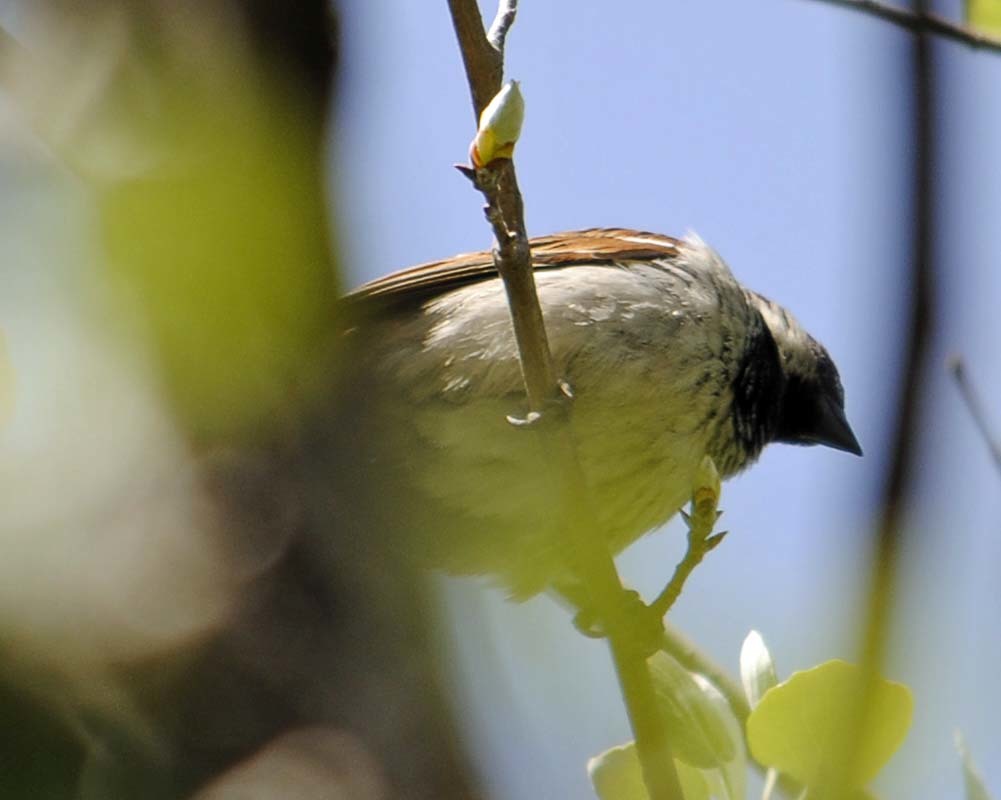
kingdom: Animalia
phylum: Chordata
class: Aves
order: Passeriformes
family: Passeridae
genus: Passer
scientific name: Passer domesticus
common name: House sparrow
